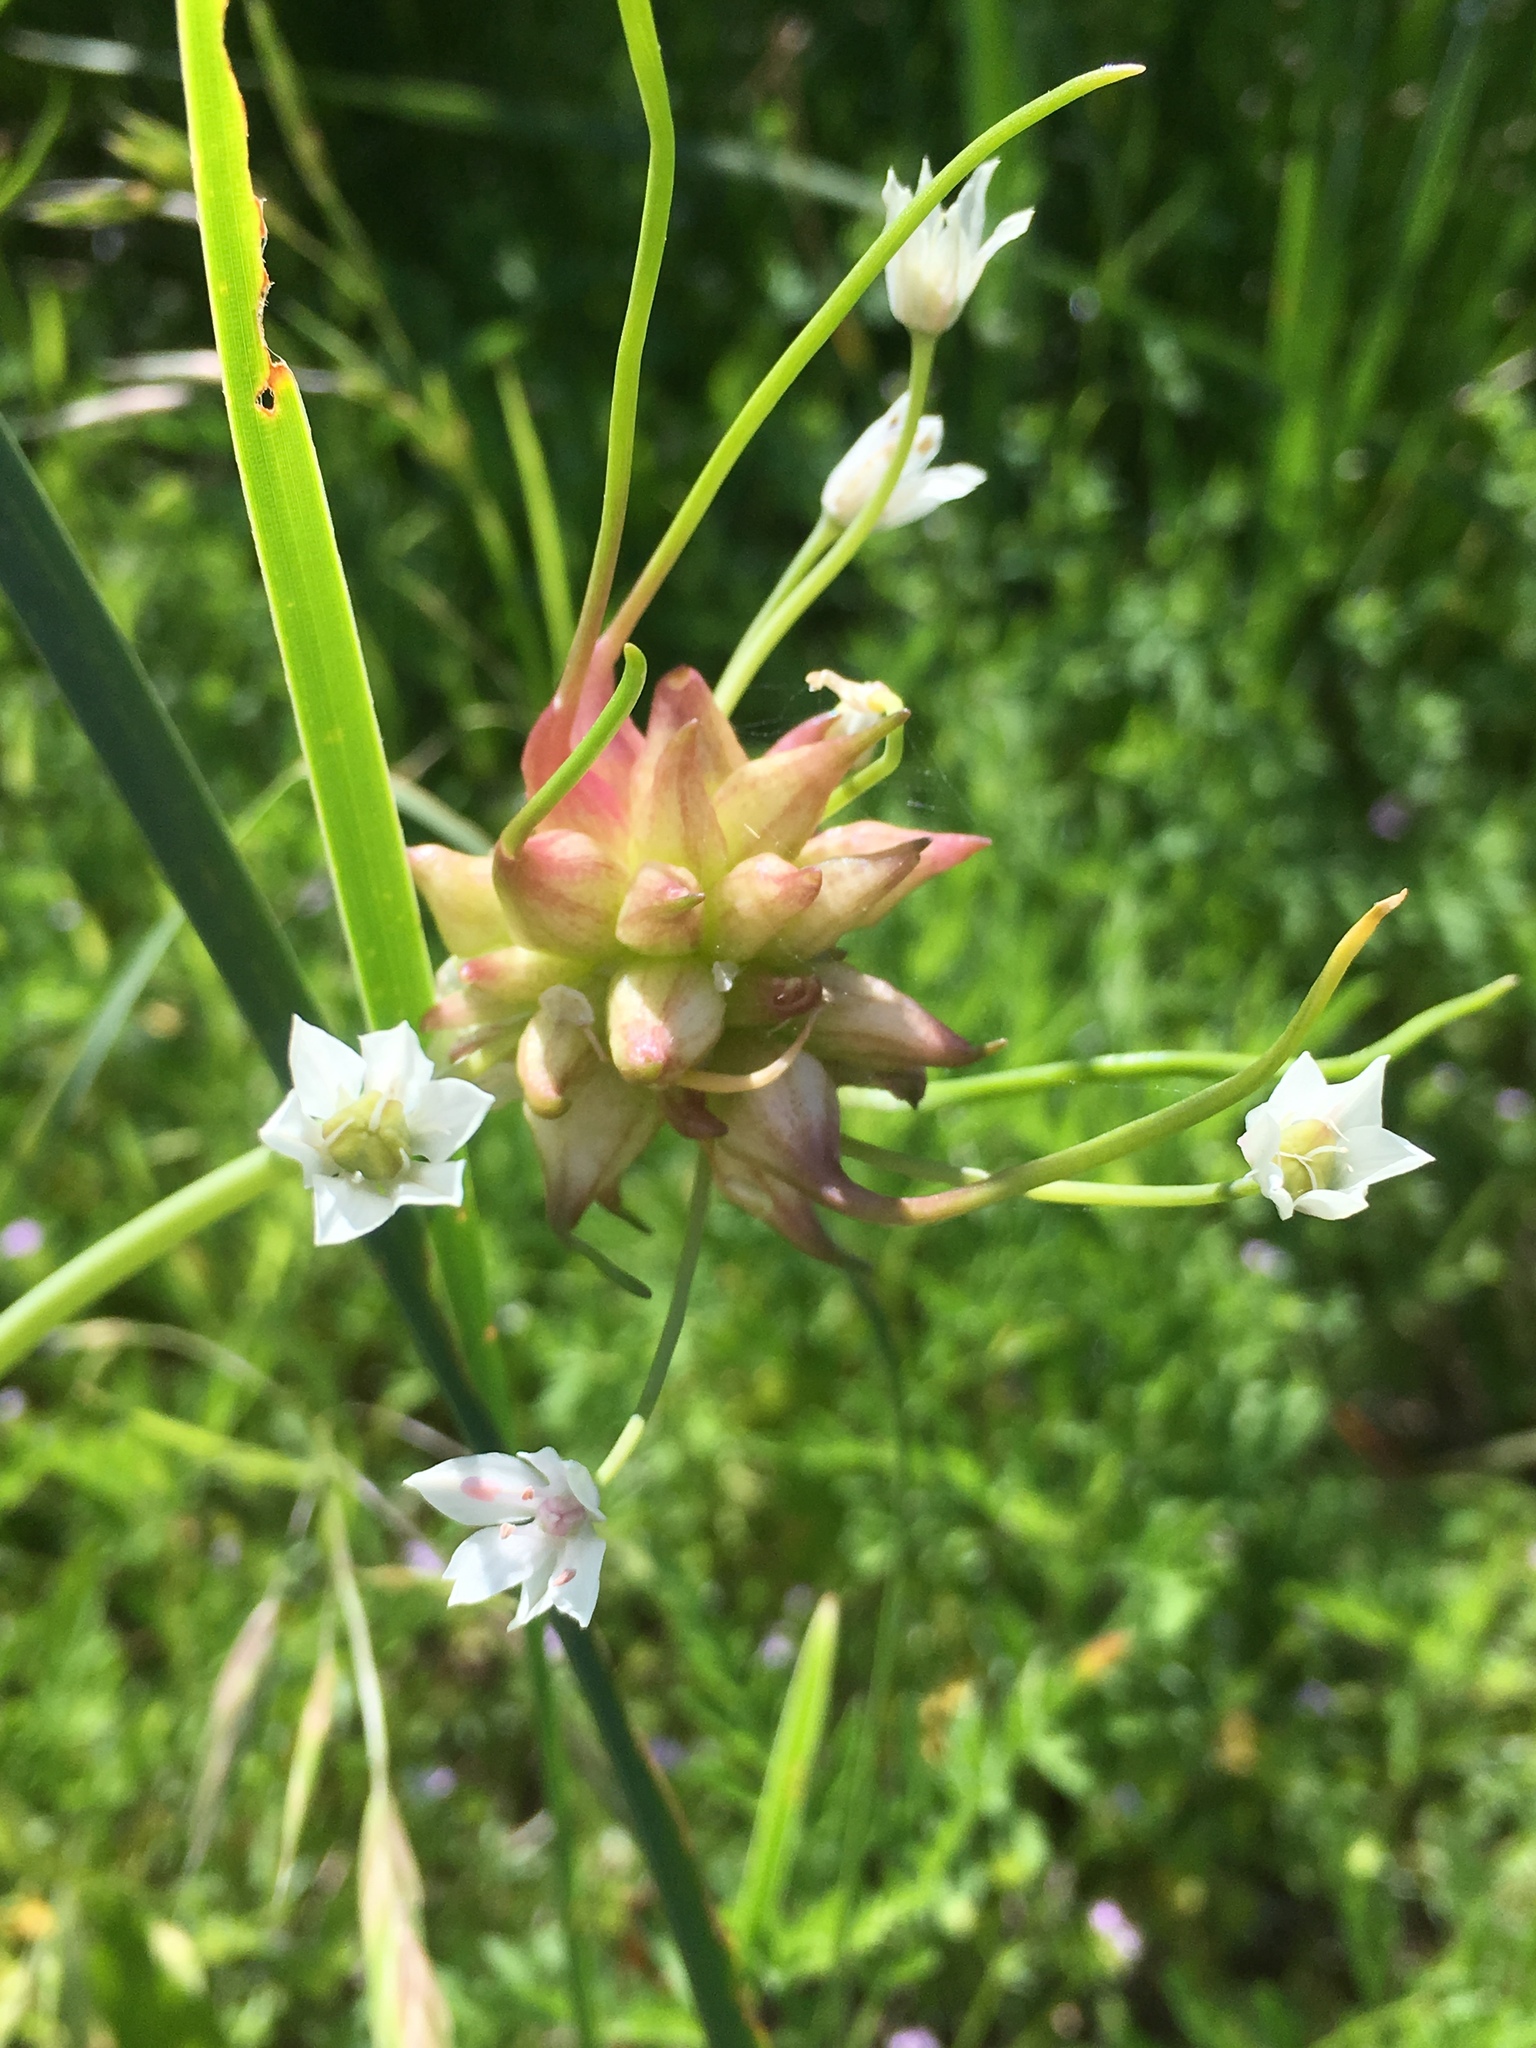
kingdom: Plantae
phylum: Tracheophyta
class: Liliopsida
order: Asparagales
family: Amaryllidaceae
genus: Allium
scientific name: Allium canadense
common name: Meadow garlic
